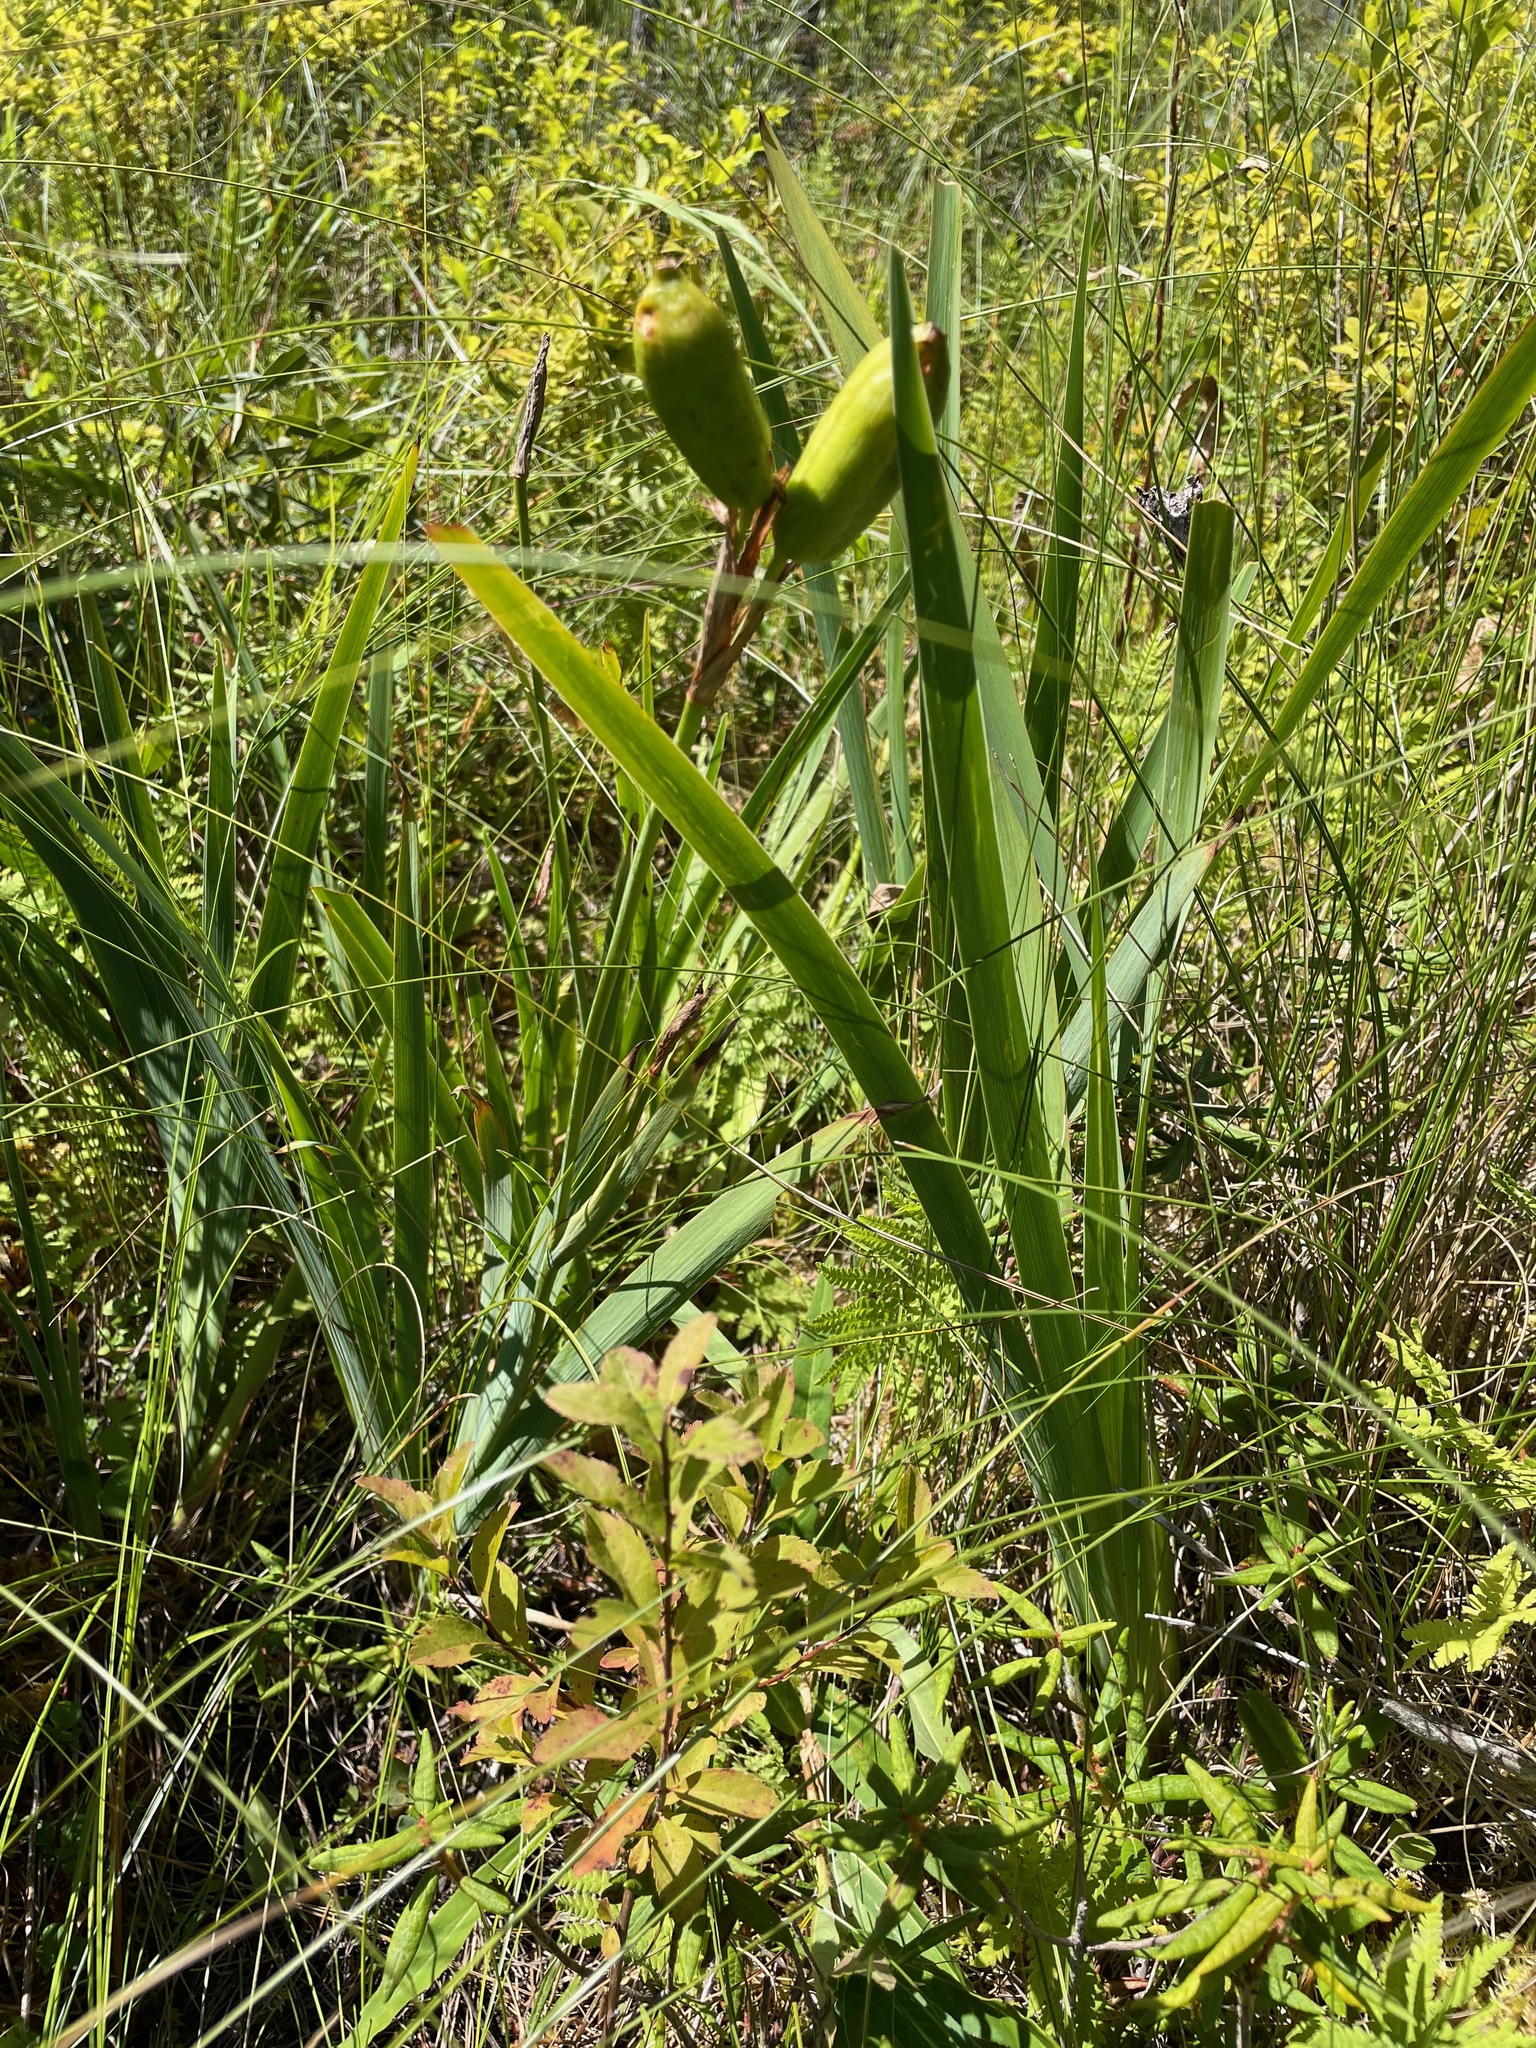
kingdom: Plantae
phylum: Tracheophyta
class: Liliopsida
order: Asparagales
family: Iridaceae
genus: Iris
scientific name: Iris versicolor
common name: Purple iris
